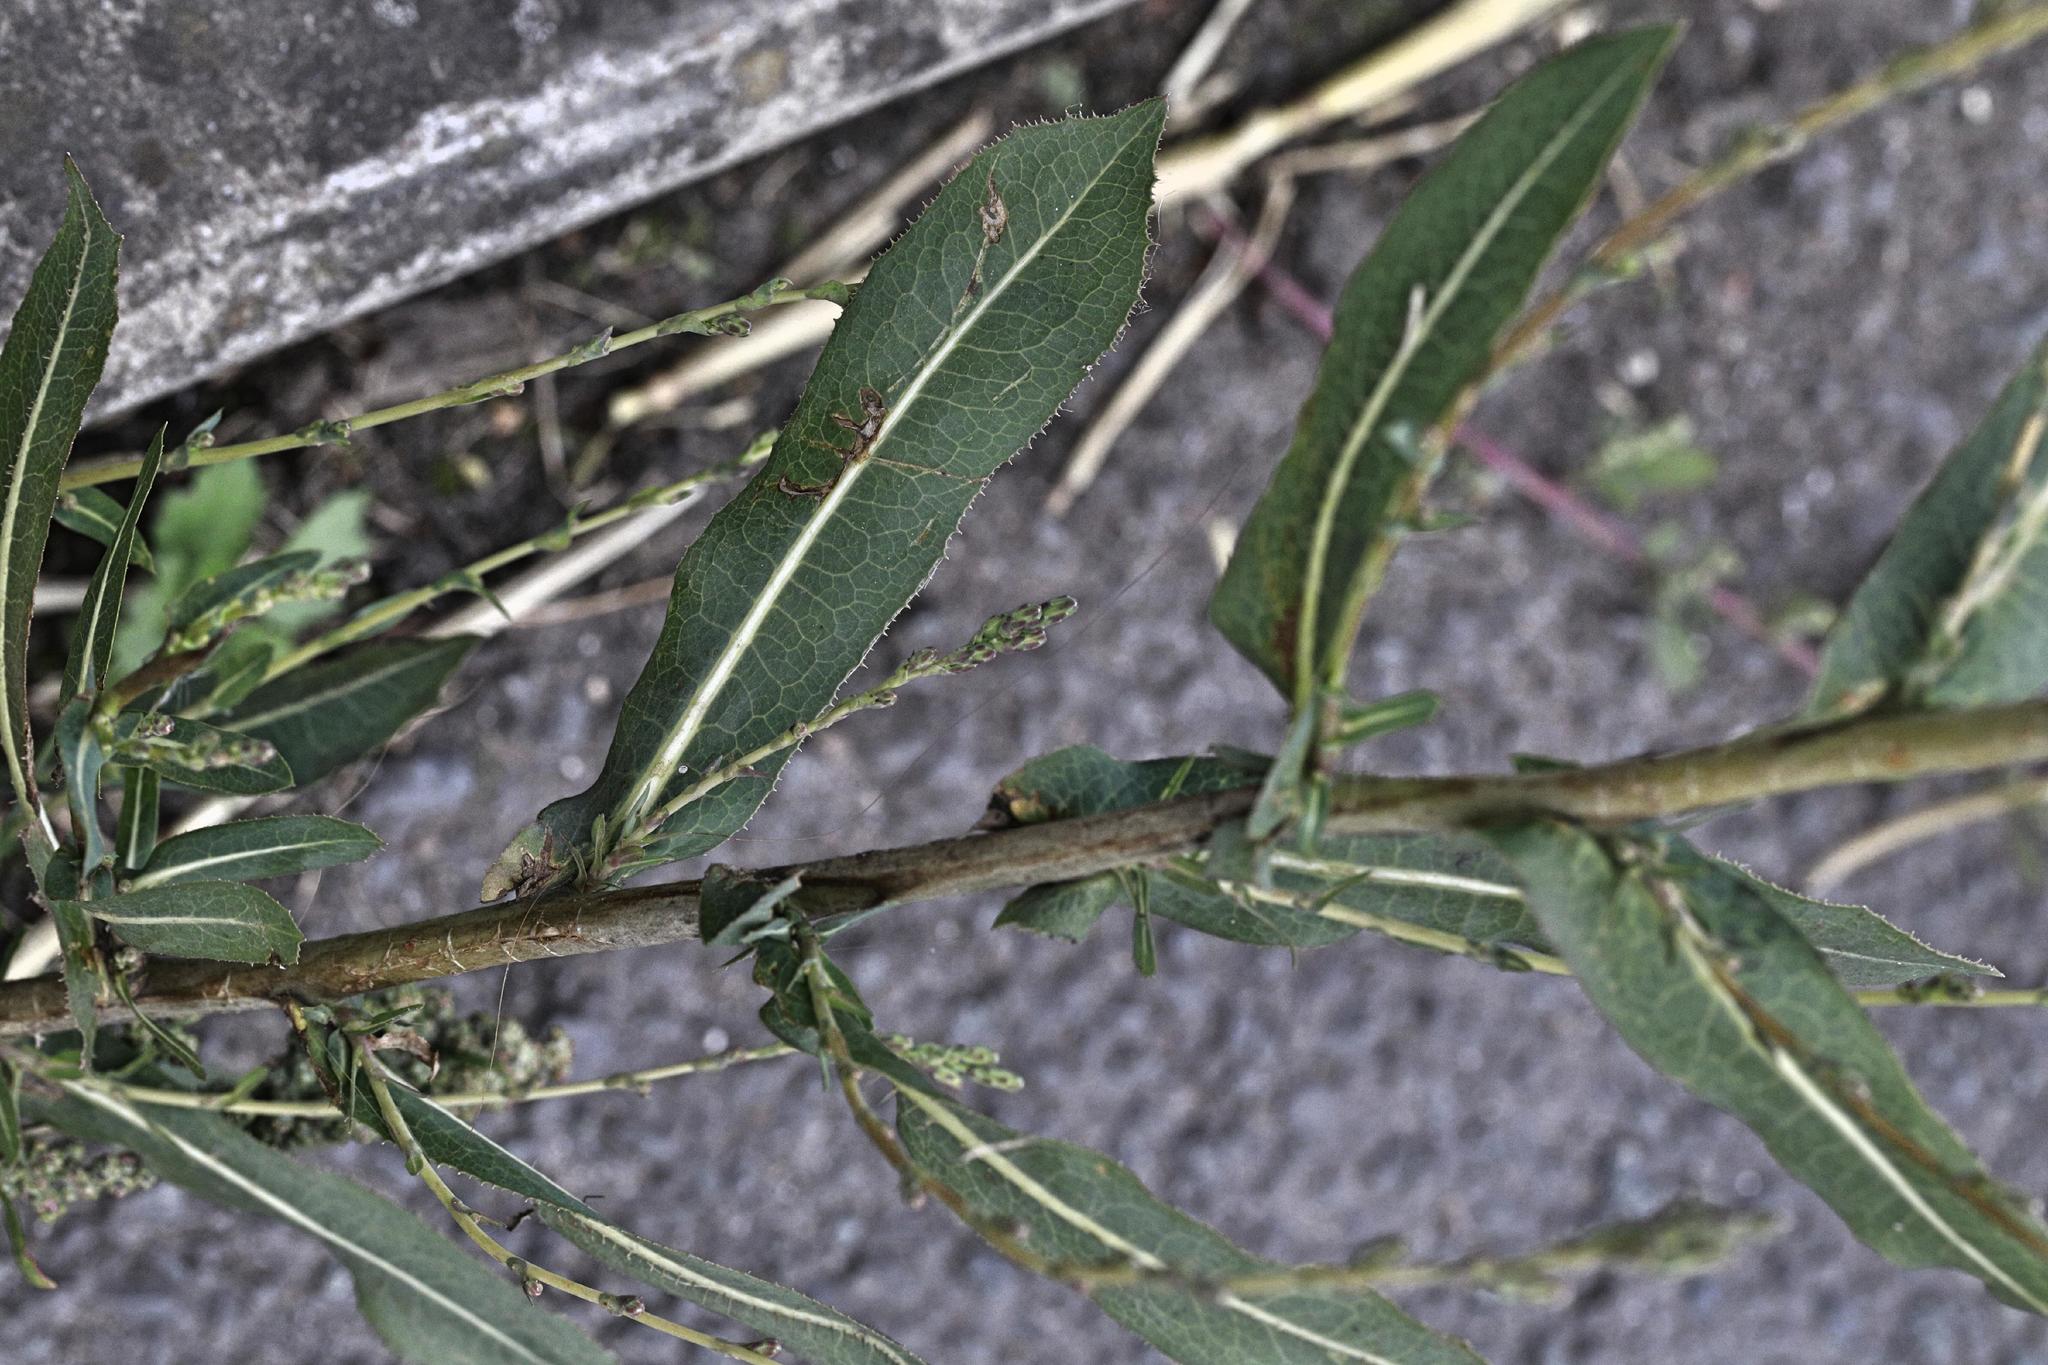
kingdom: Plantae
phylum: Tracheophyta
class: Magnoliopsida
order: Asterales
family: Asteraceae
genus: Lactuca
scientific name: Lactuca serriola
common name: Prickly lettuce
